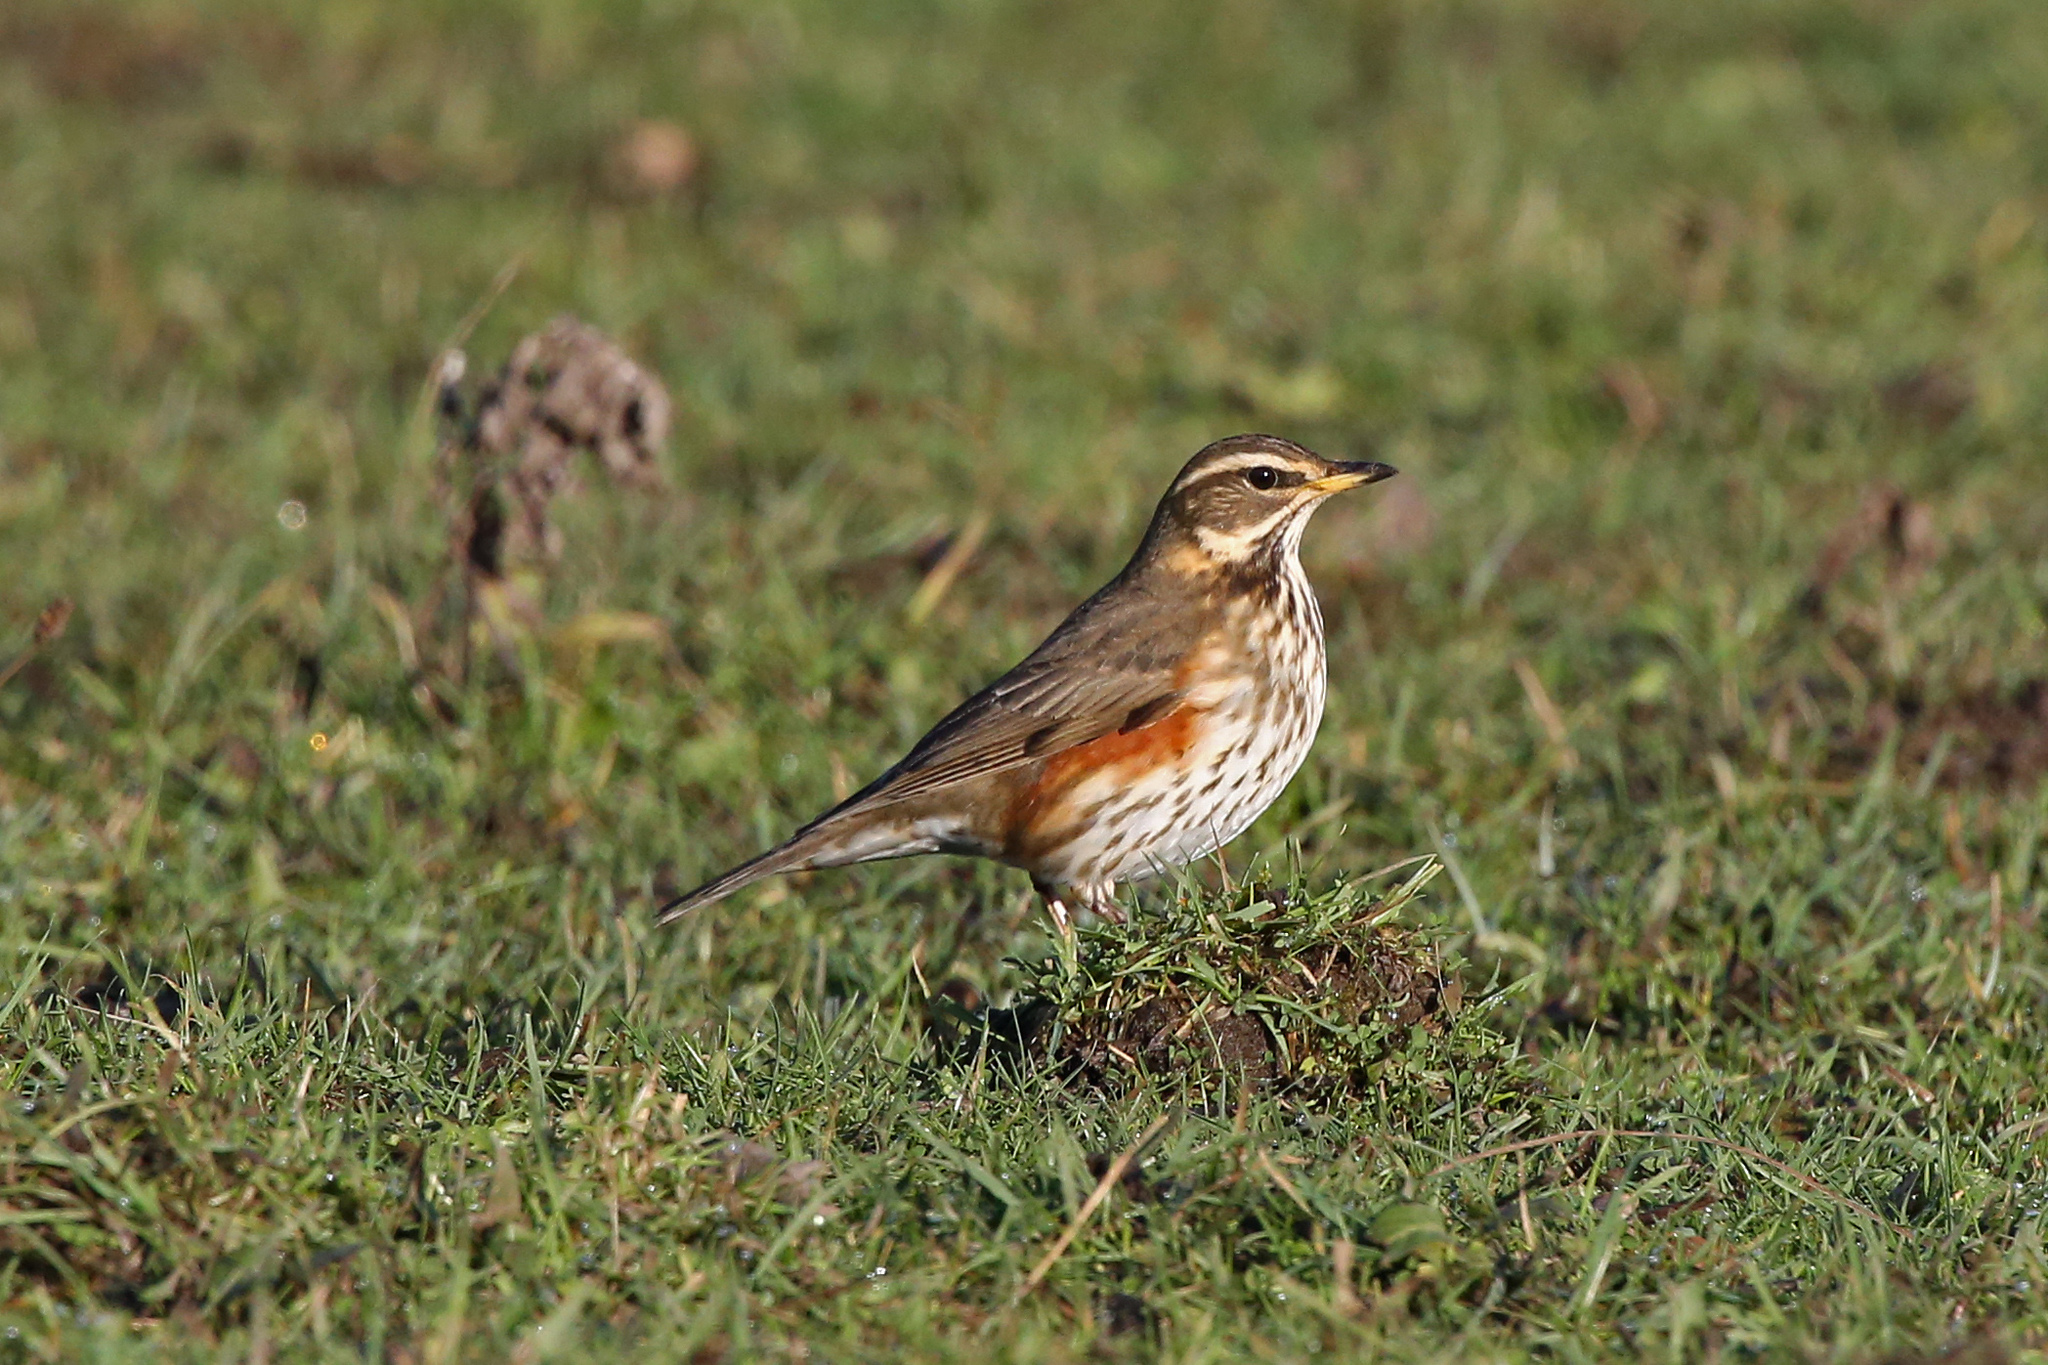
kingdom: Animalia
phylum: Chordata
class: Aves
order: Passeriformes
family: Turdidae
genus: Turdus
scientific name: Turdus iliacus
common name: Redwing
